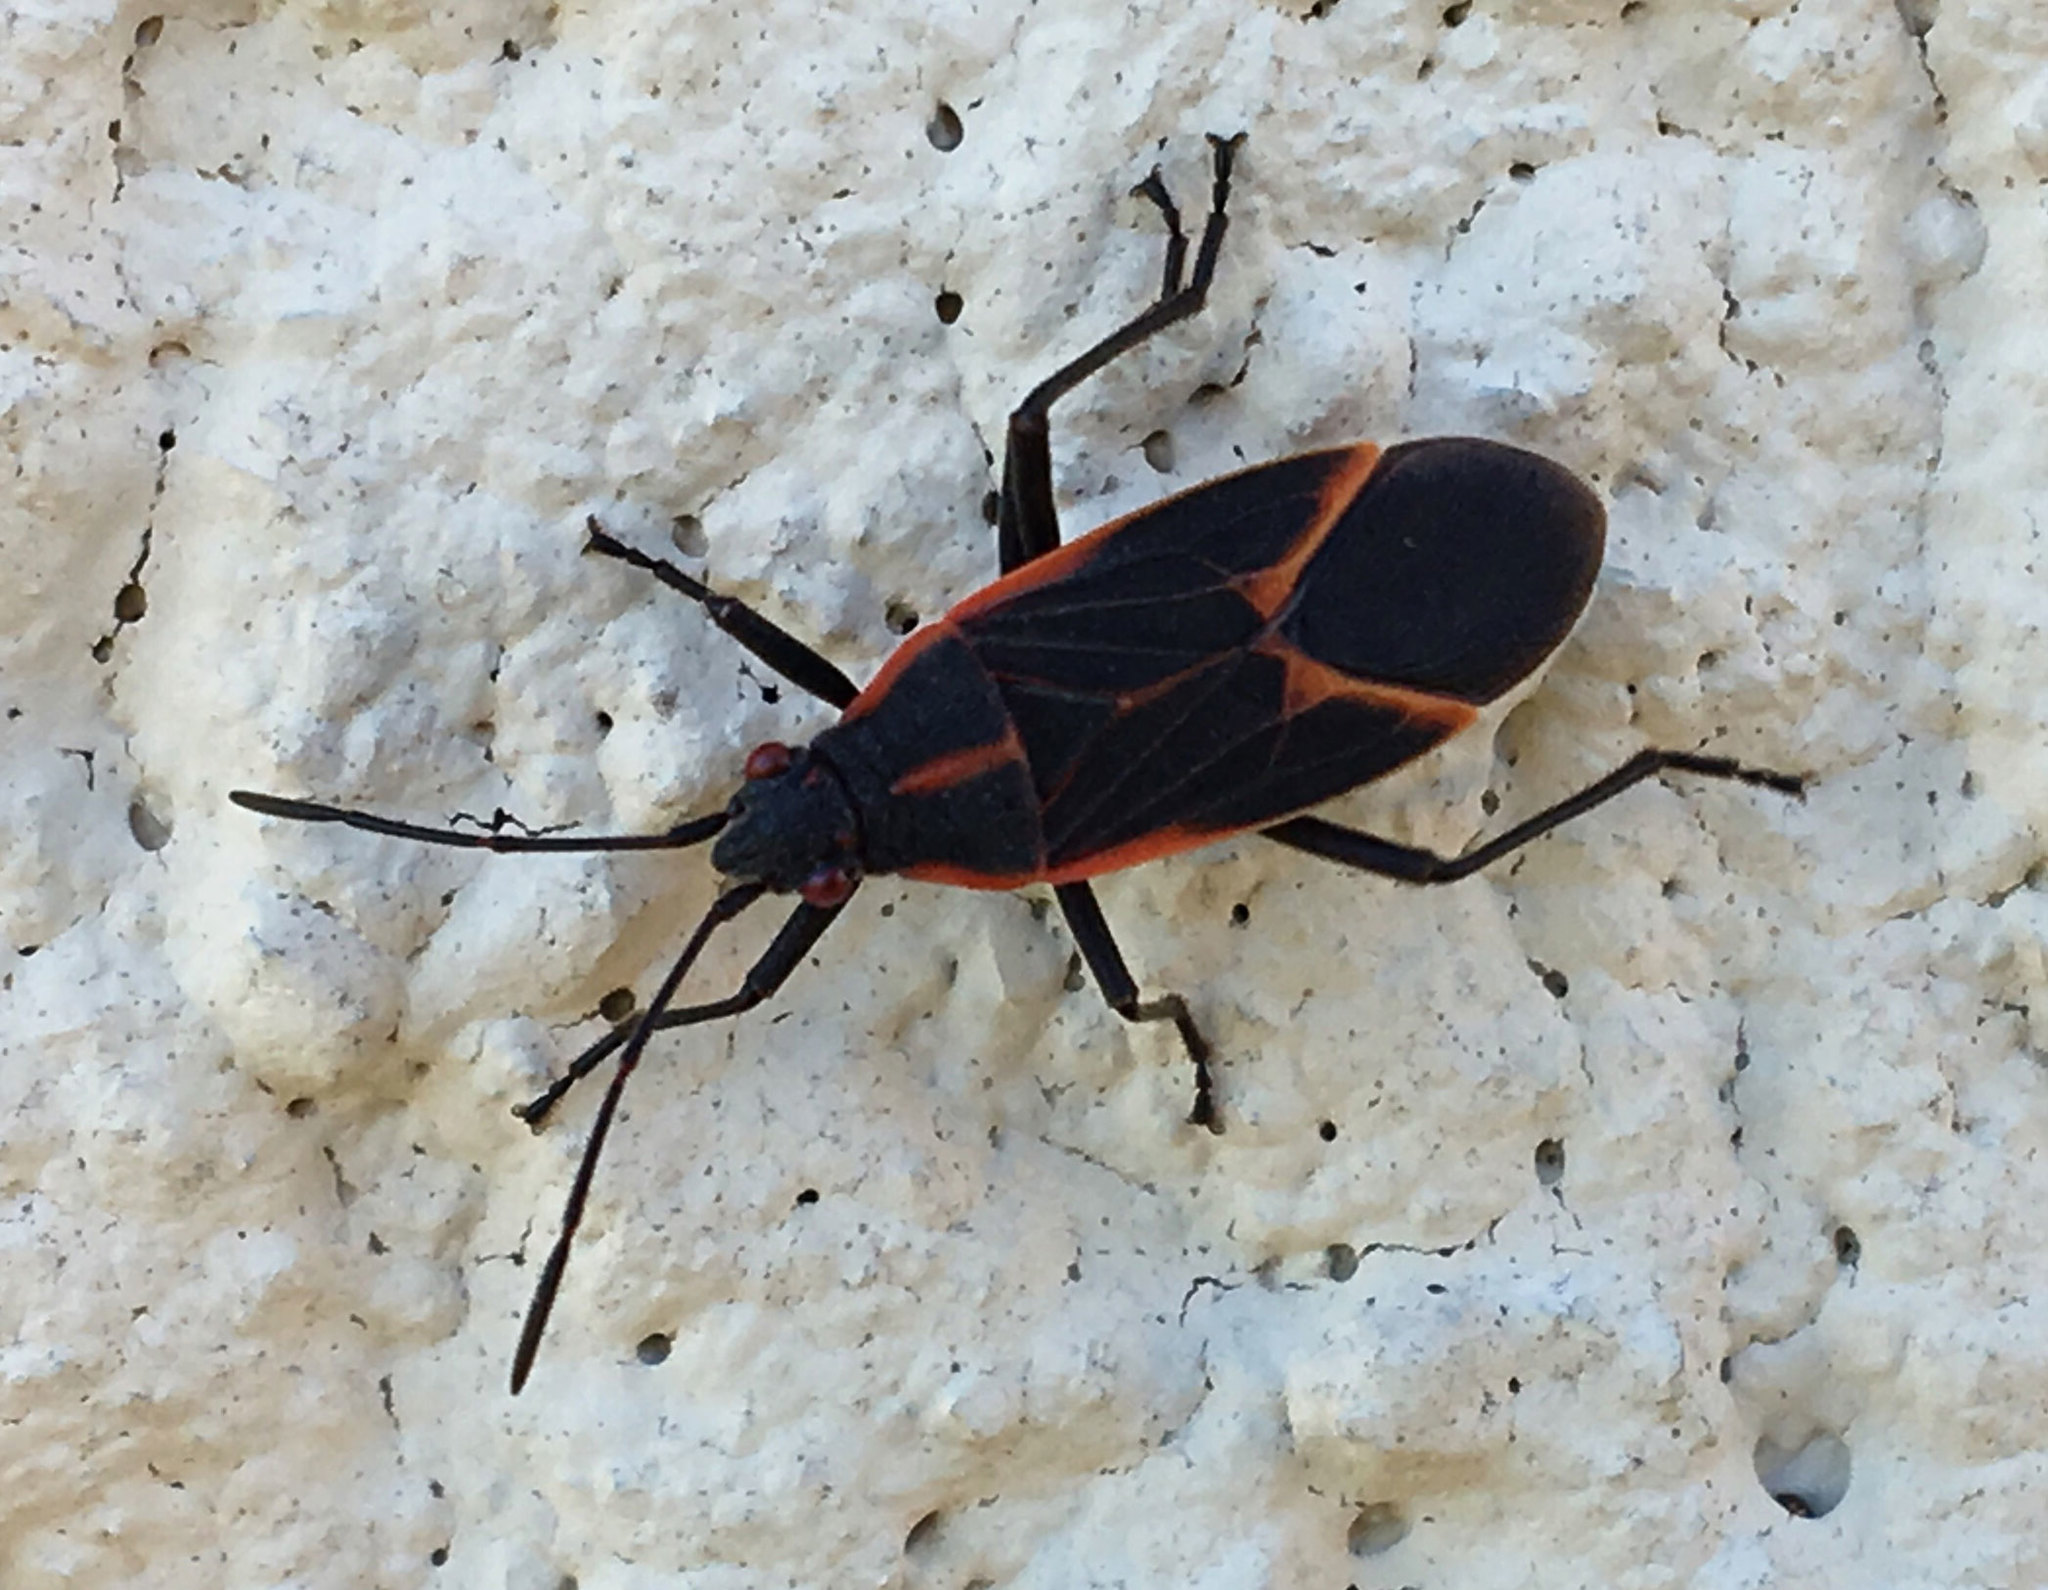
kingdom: Animalia
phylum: Arthropoda
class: Insecta
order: Hemiptera
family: Rhopalidae
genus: Boisea
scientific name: Boisea trivittata
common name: Boxelder bug
